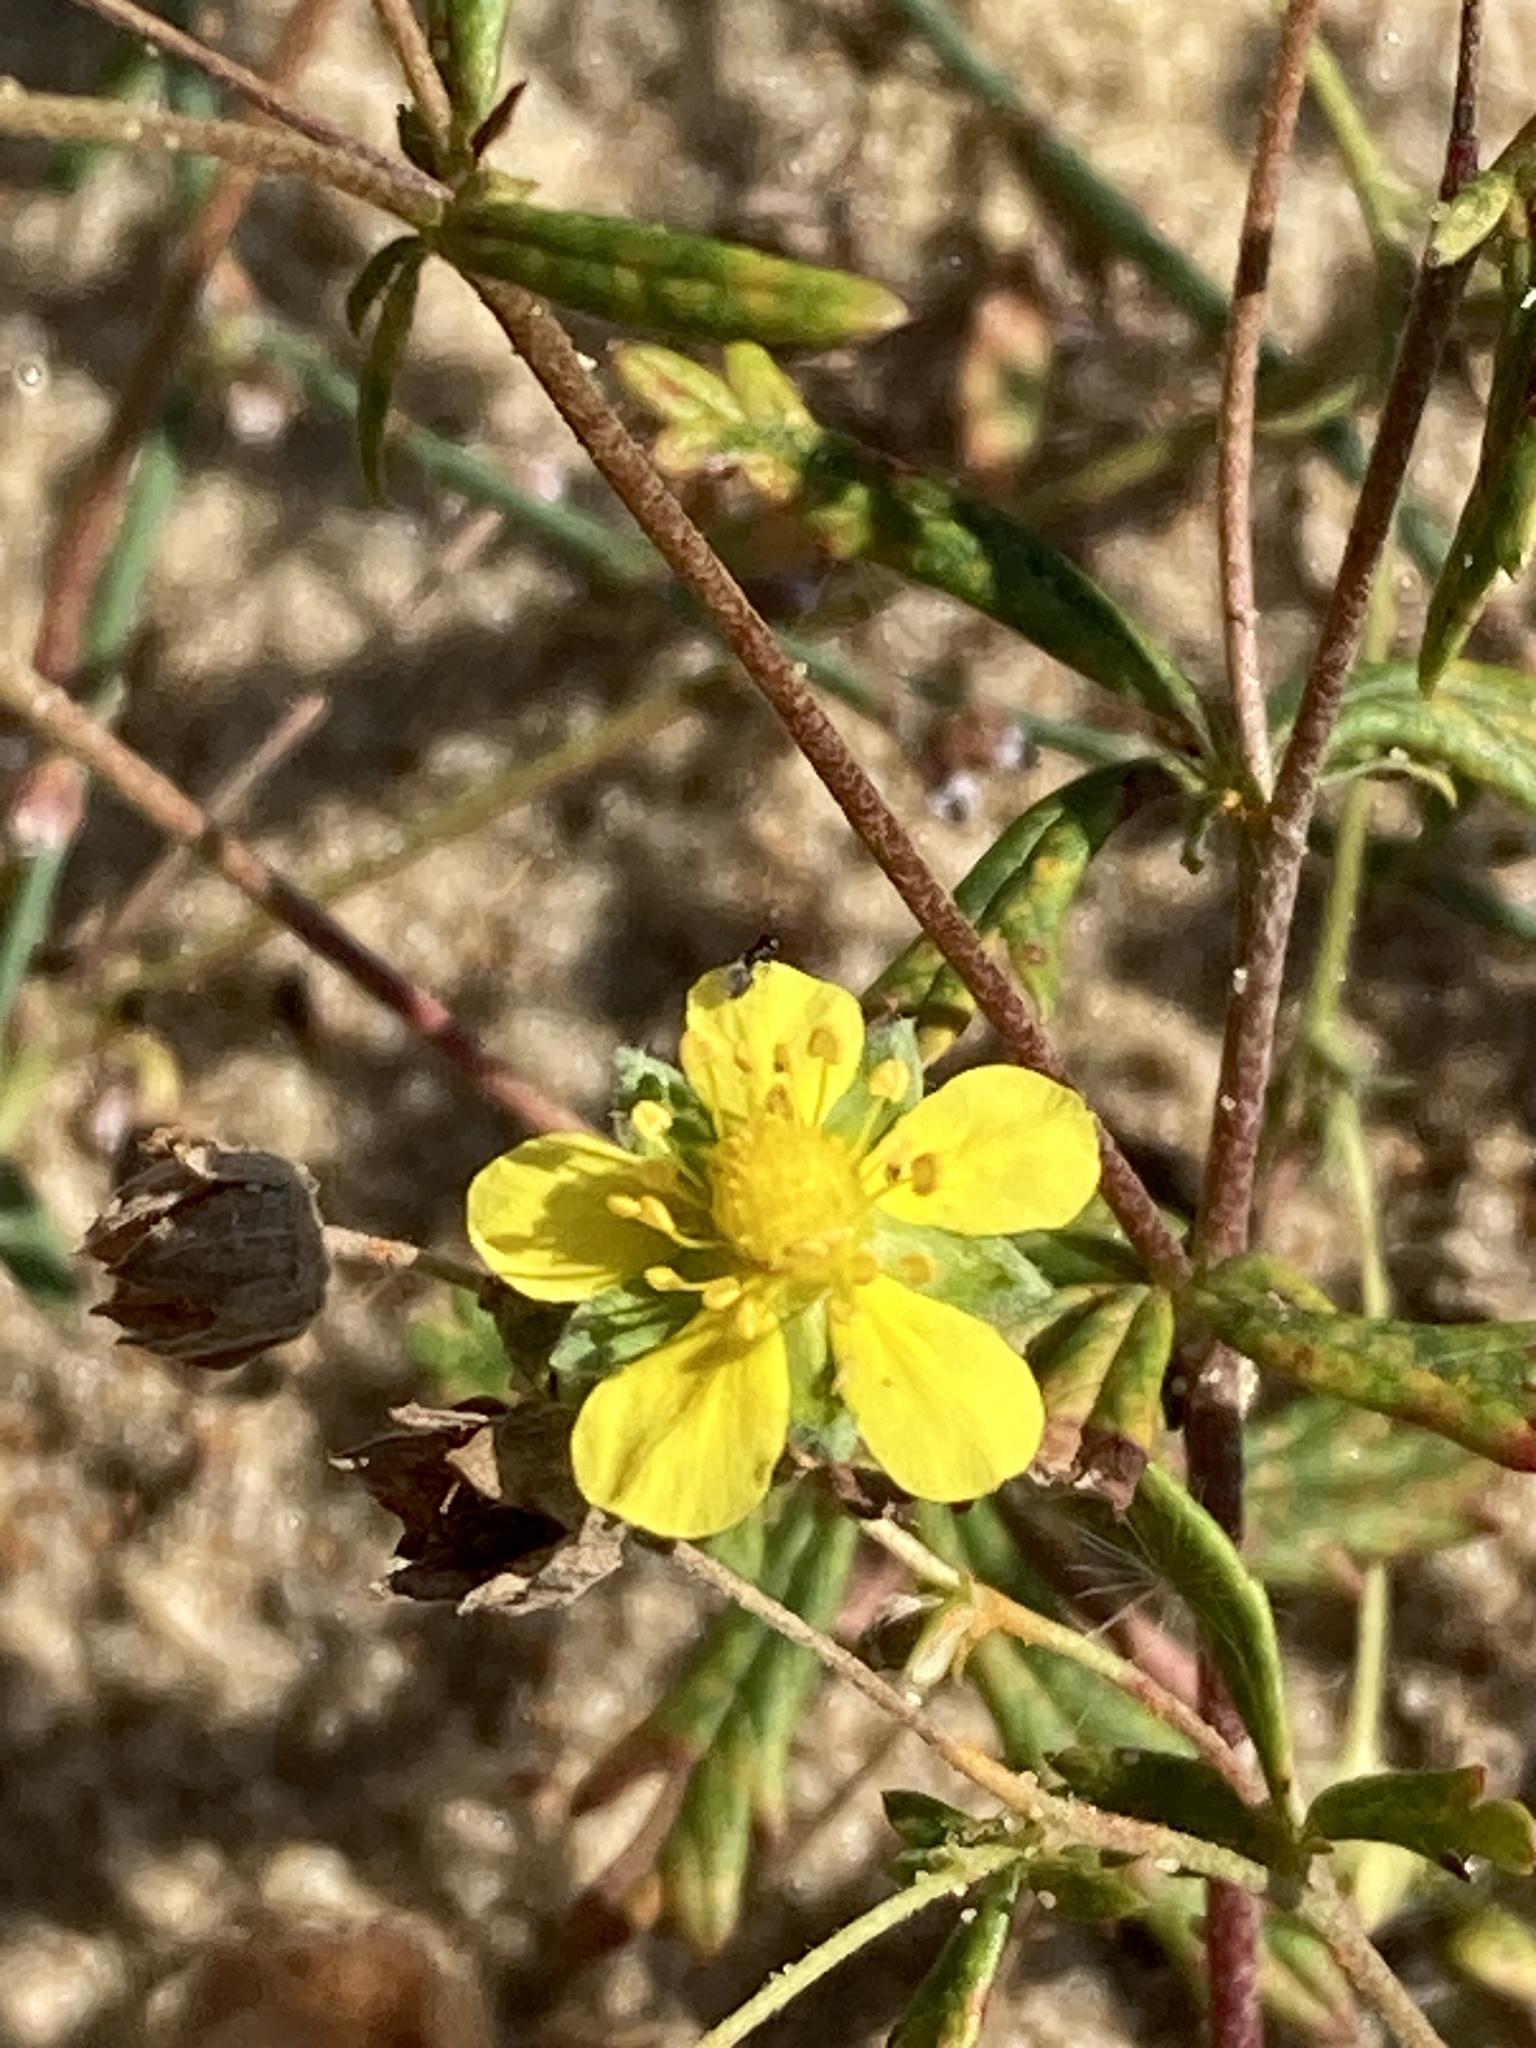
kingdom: Plantae
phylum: Tracheophyta
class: Magnoliopsida
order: Rosales
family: Rosaceae
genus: Potentilla
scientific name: Potentilla argentea
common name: Hoary cinquefoil
